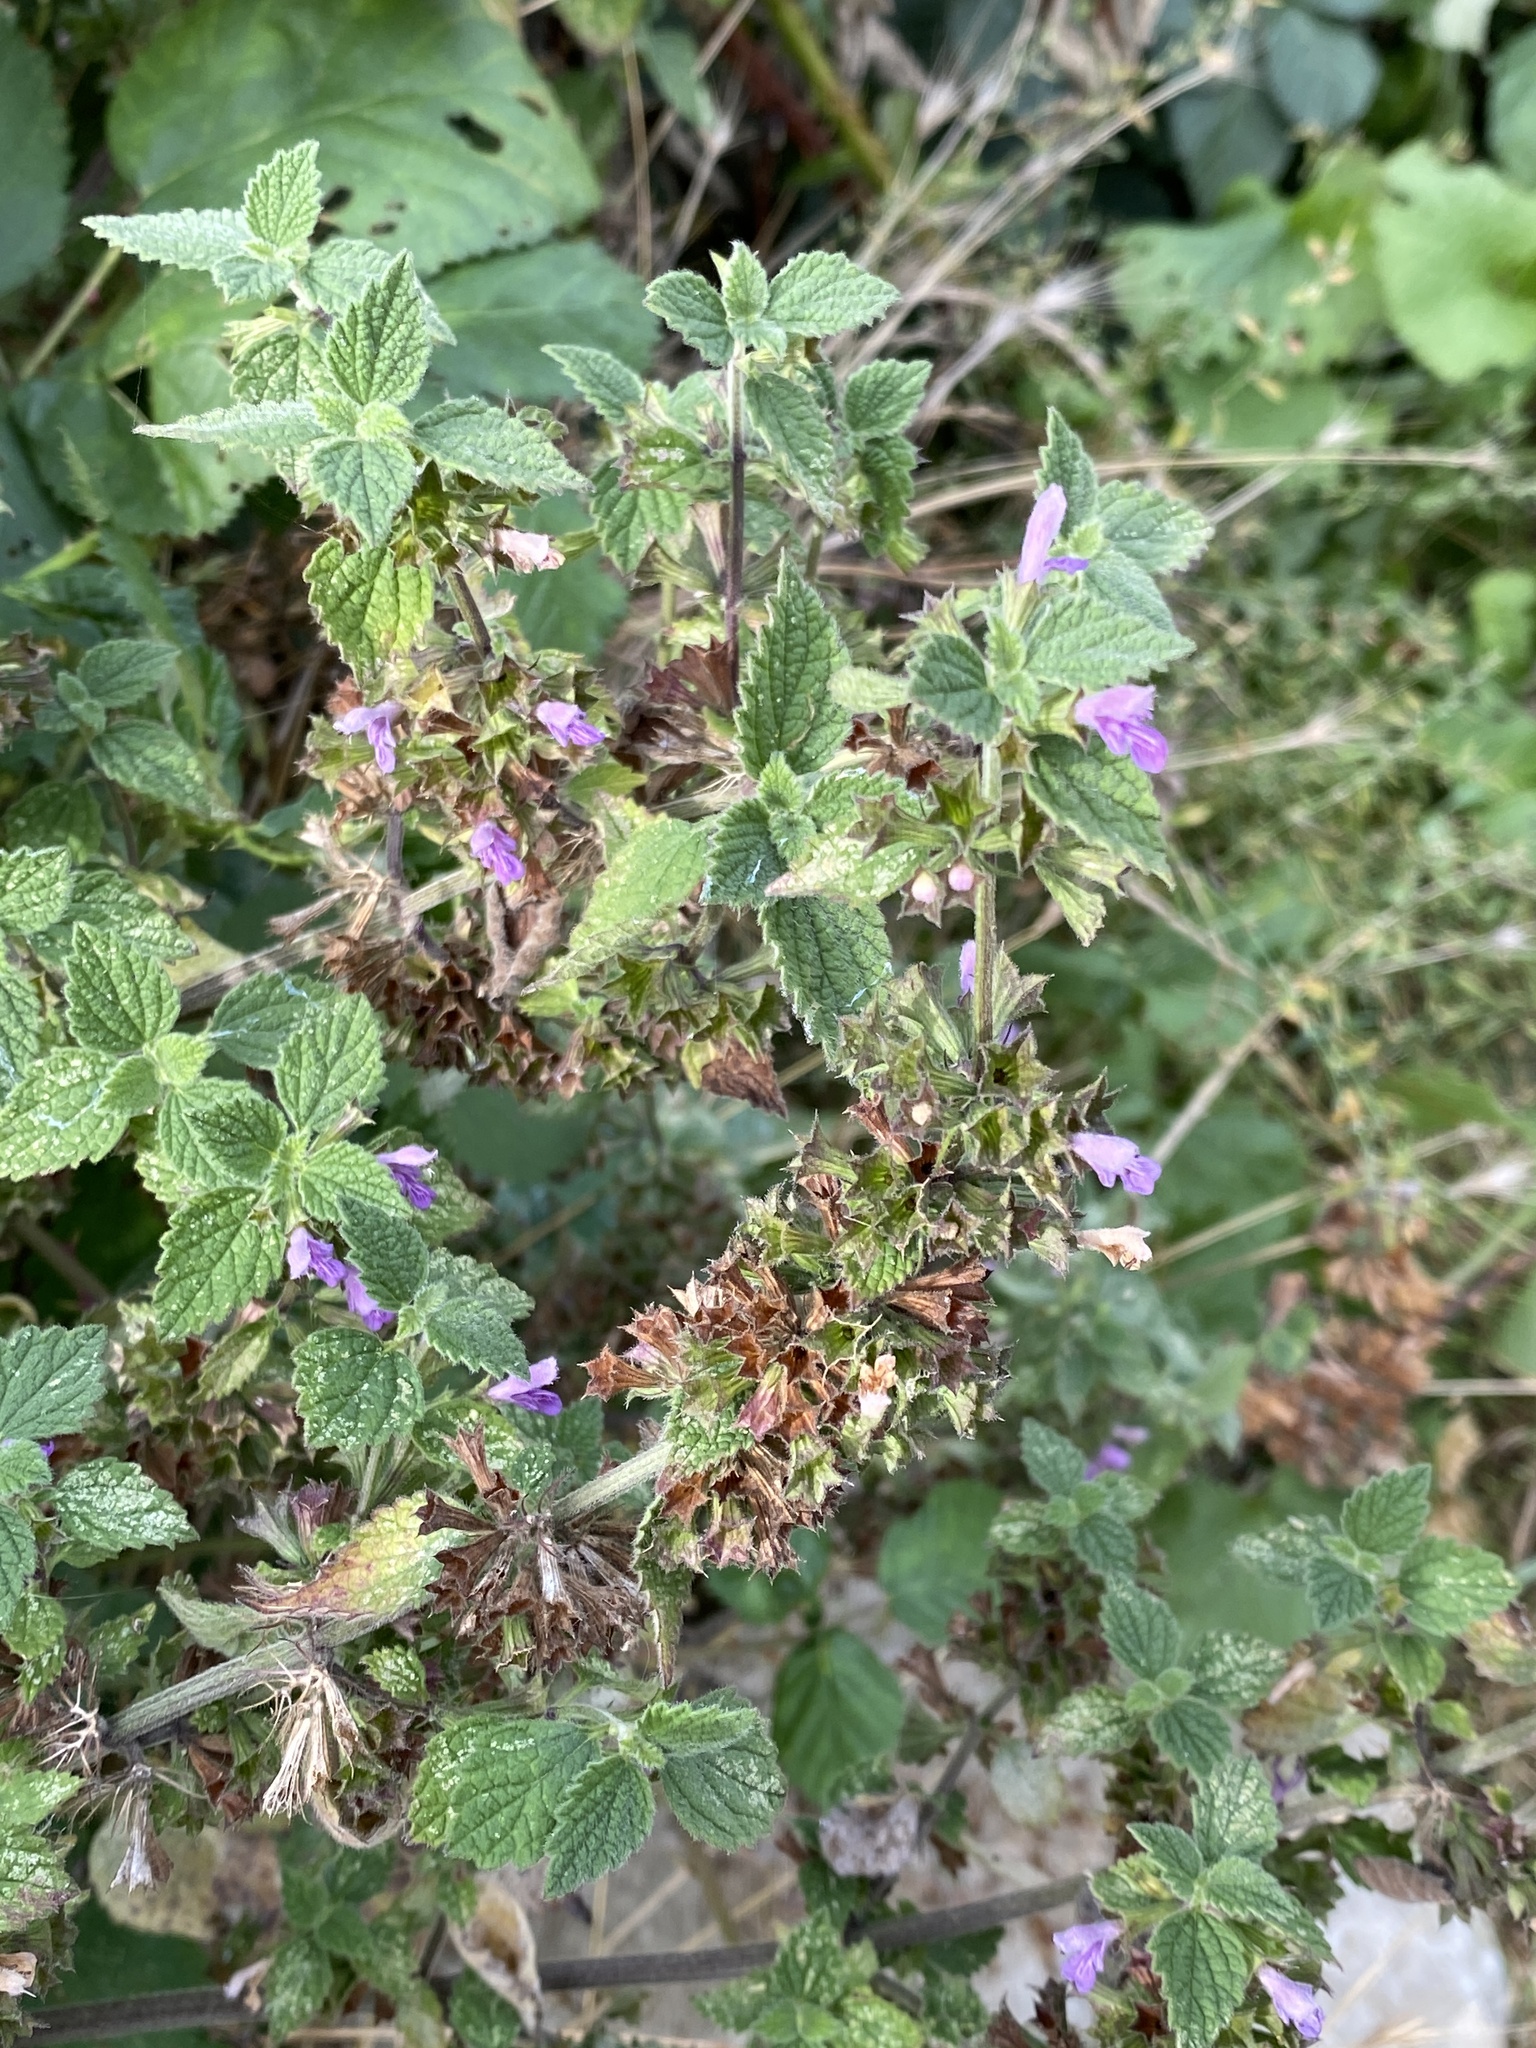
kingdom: Plantae
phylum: Tracheophyta
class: Magnoliopsida
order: Lamiales
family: Lamiaceae
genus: Ballota
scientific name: Ballota nigra
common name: Black horehound
